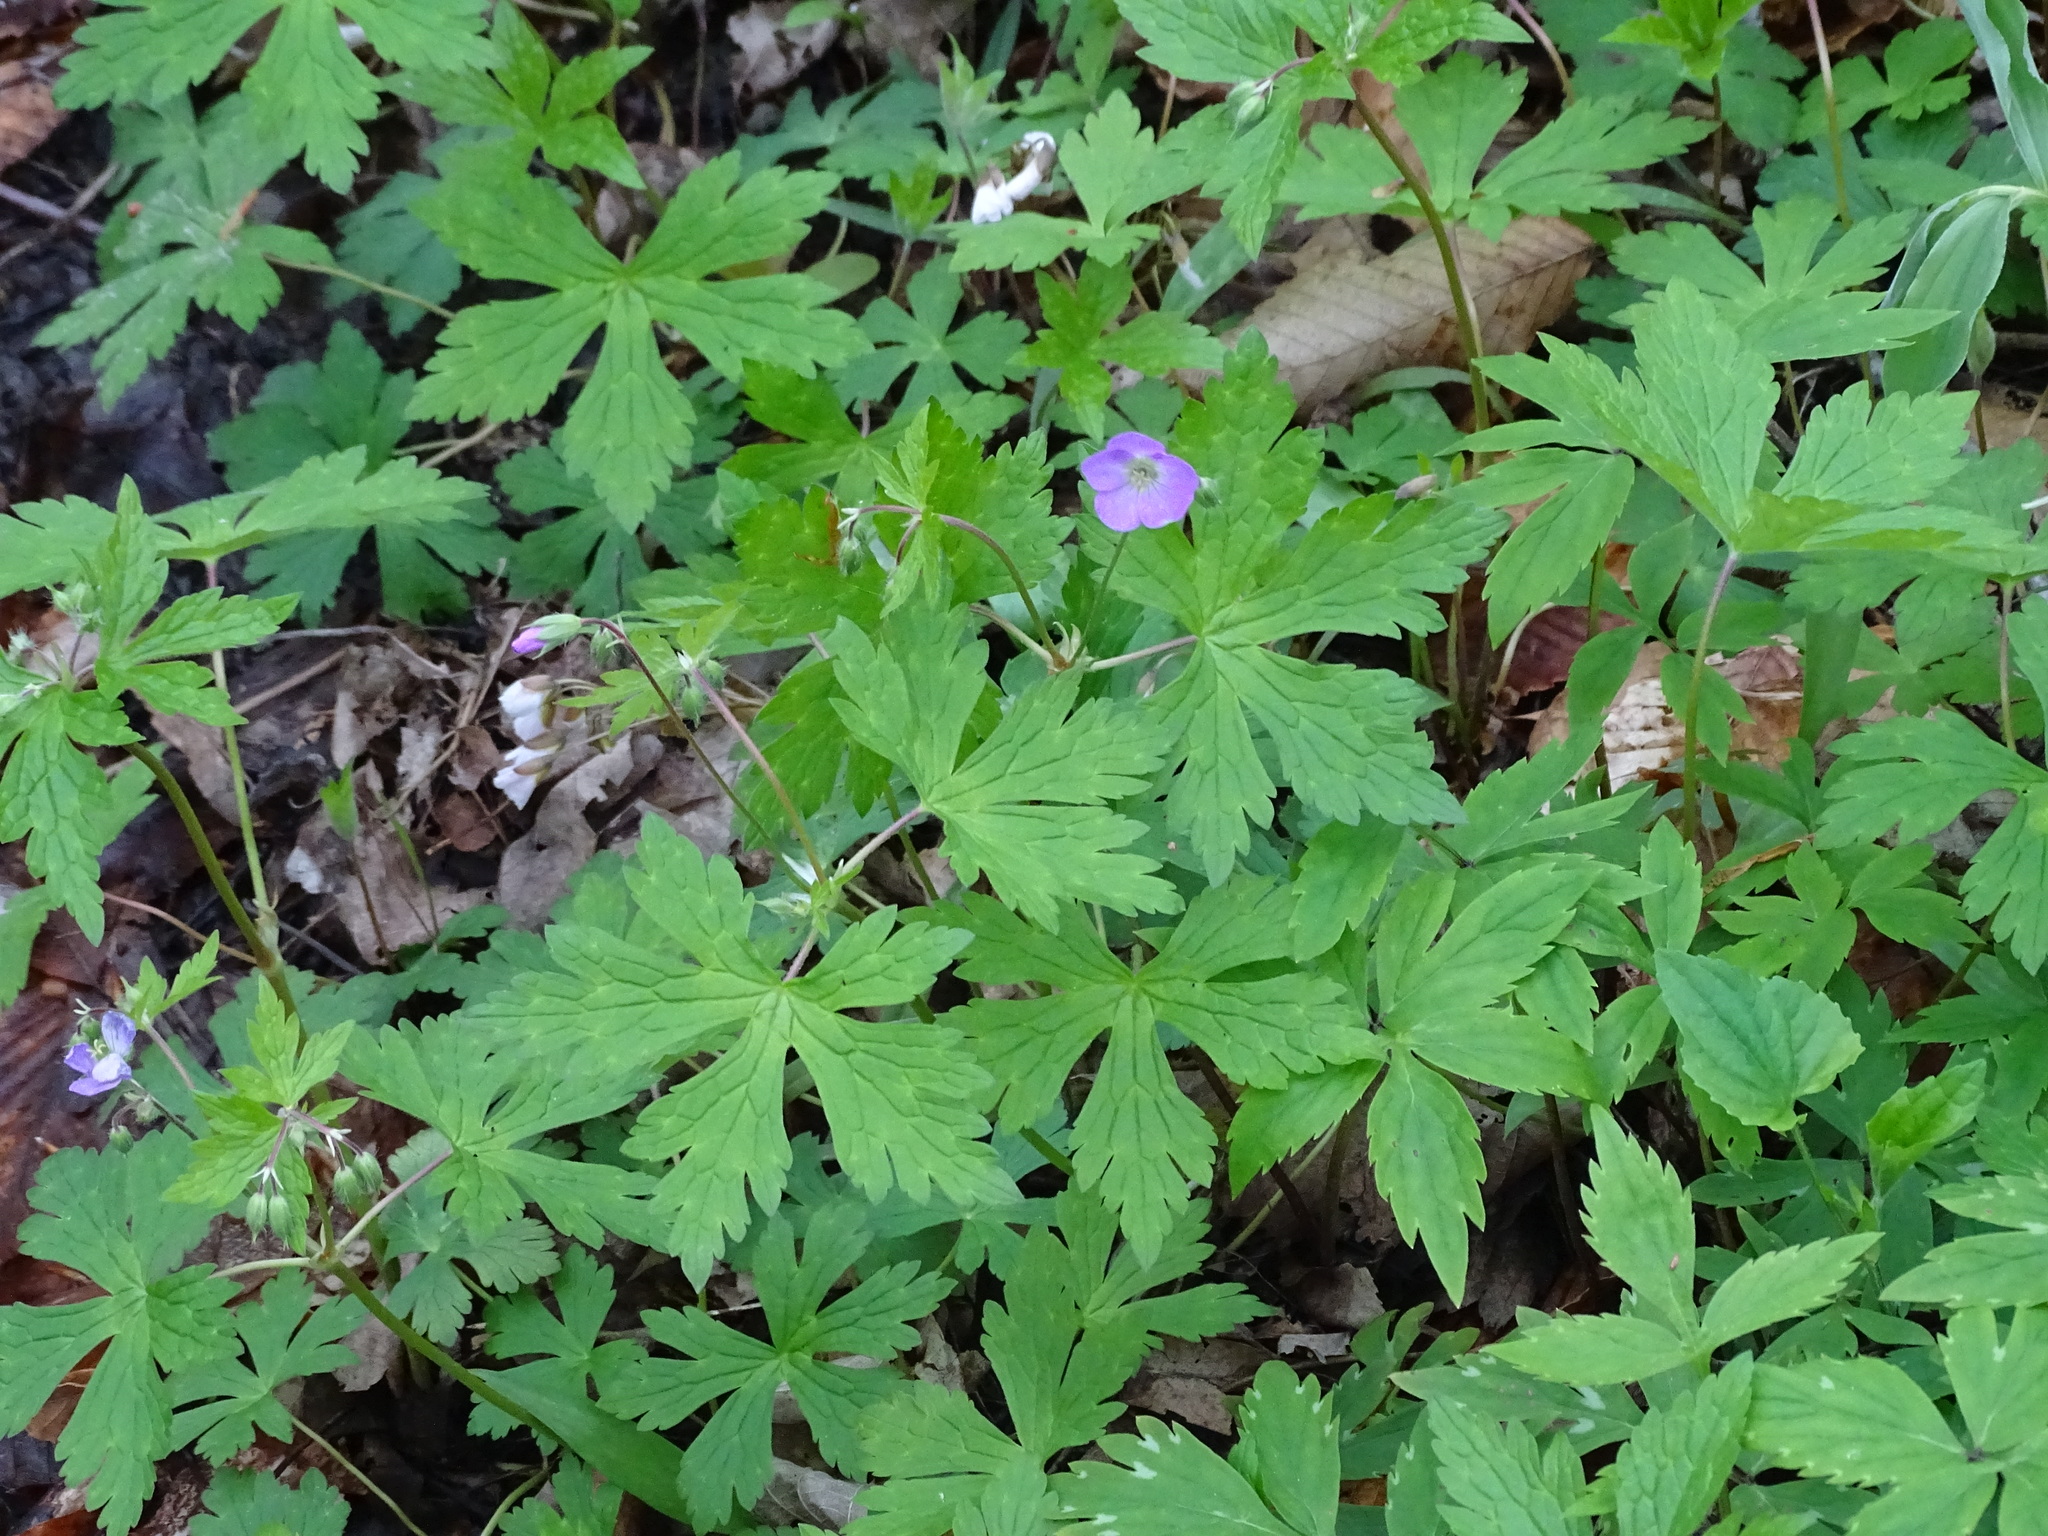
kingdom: Plantae
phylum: Tracheophyta
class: Magnoliopsida
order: Geraniales
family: Geraniaceae
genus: Geranium
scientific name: Geranium maculatum
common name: Spotted geranium
